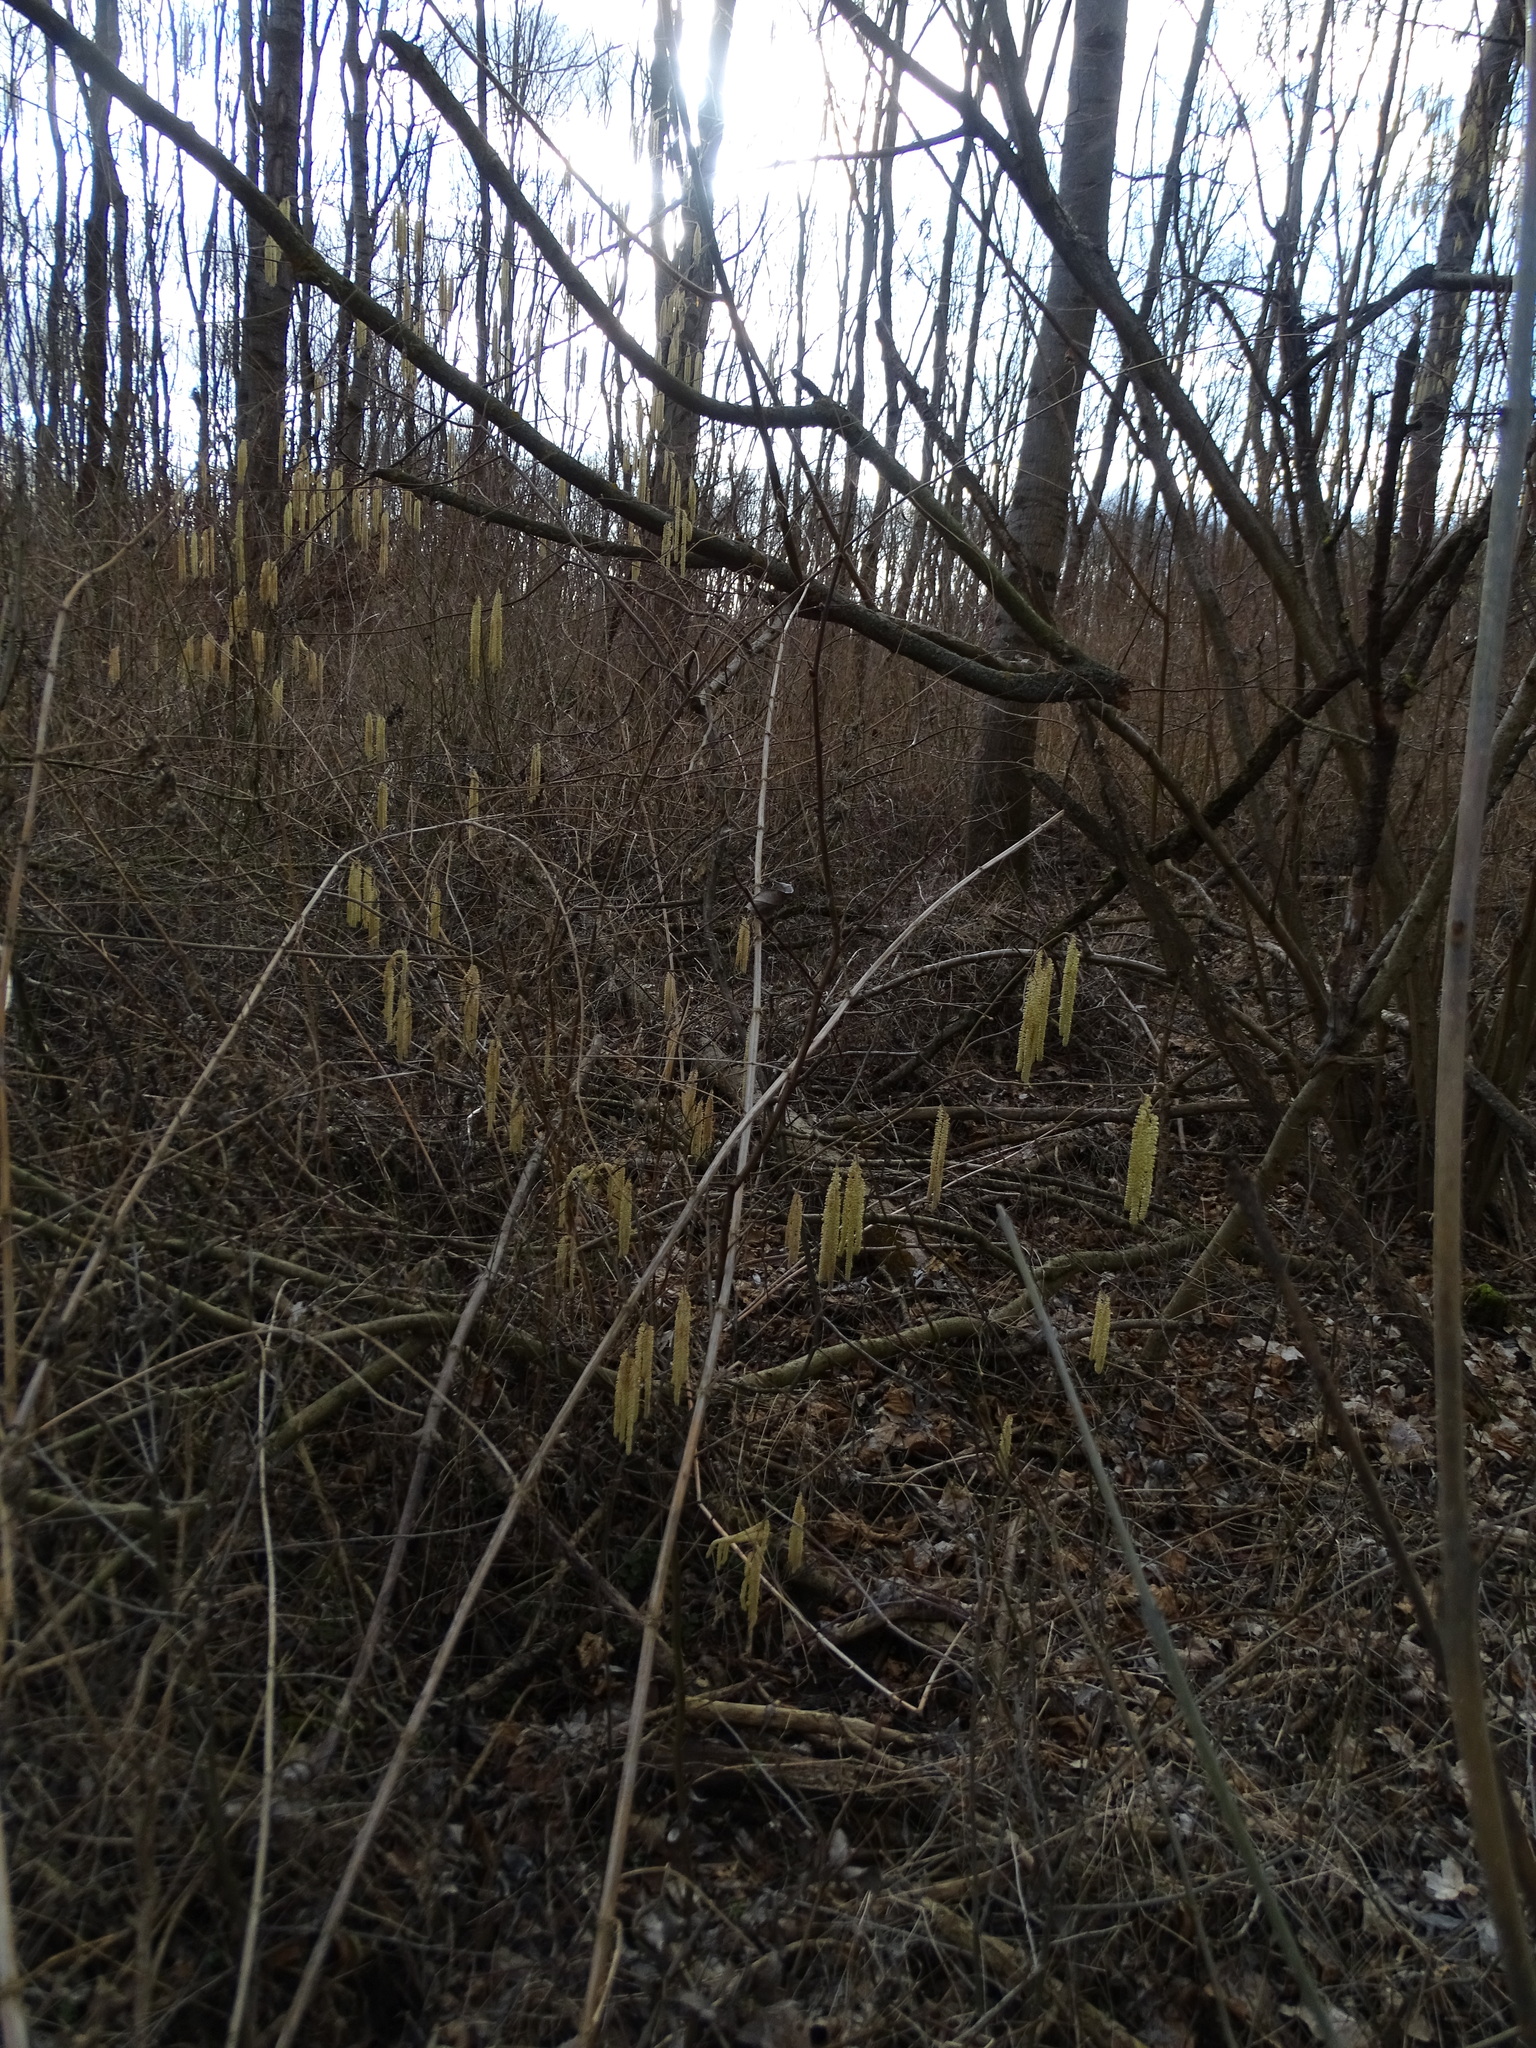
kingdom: Plantae
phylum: Tracheophyta
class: Magnoliopsida
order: Fagales
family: Betulaceae
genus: Corylus
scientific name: Corylus avellana
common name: European hazel
